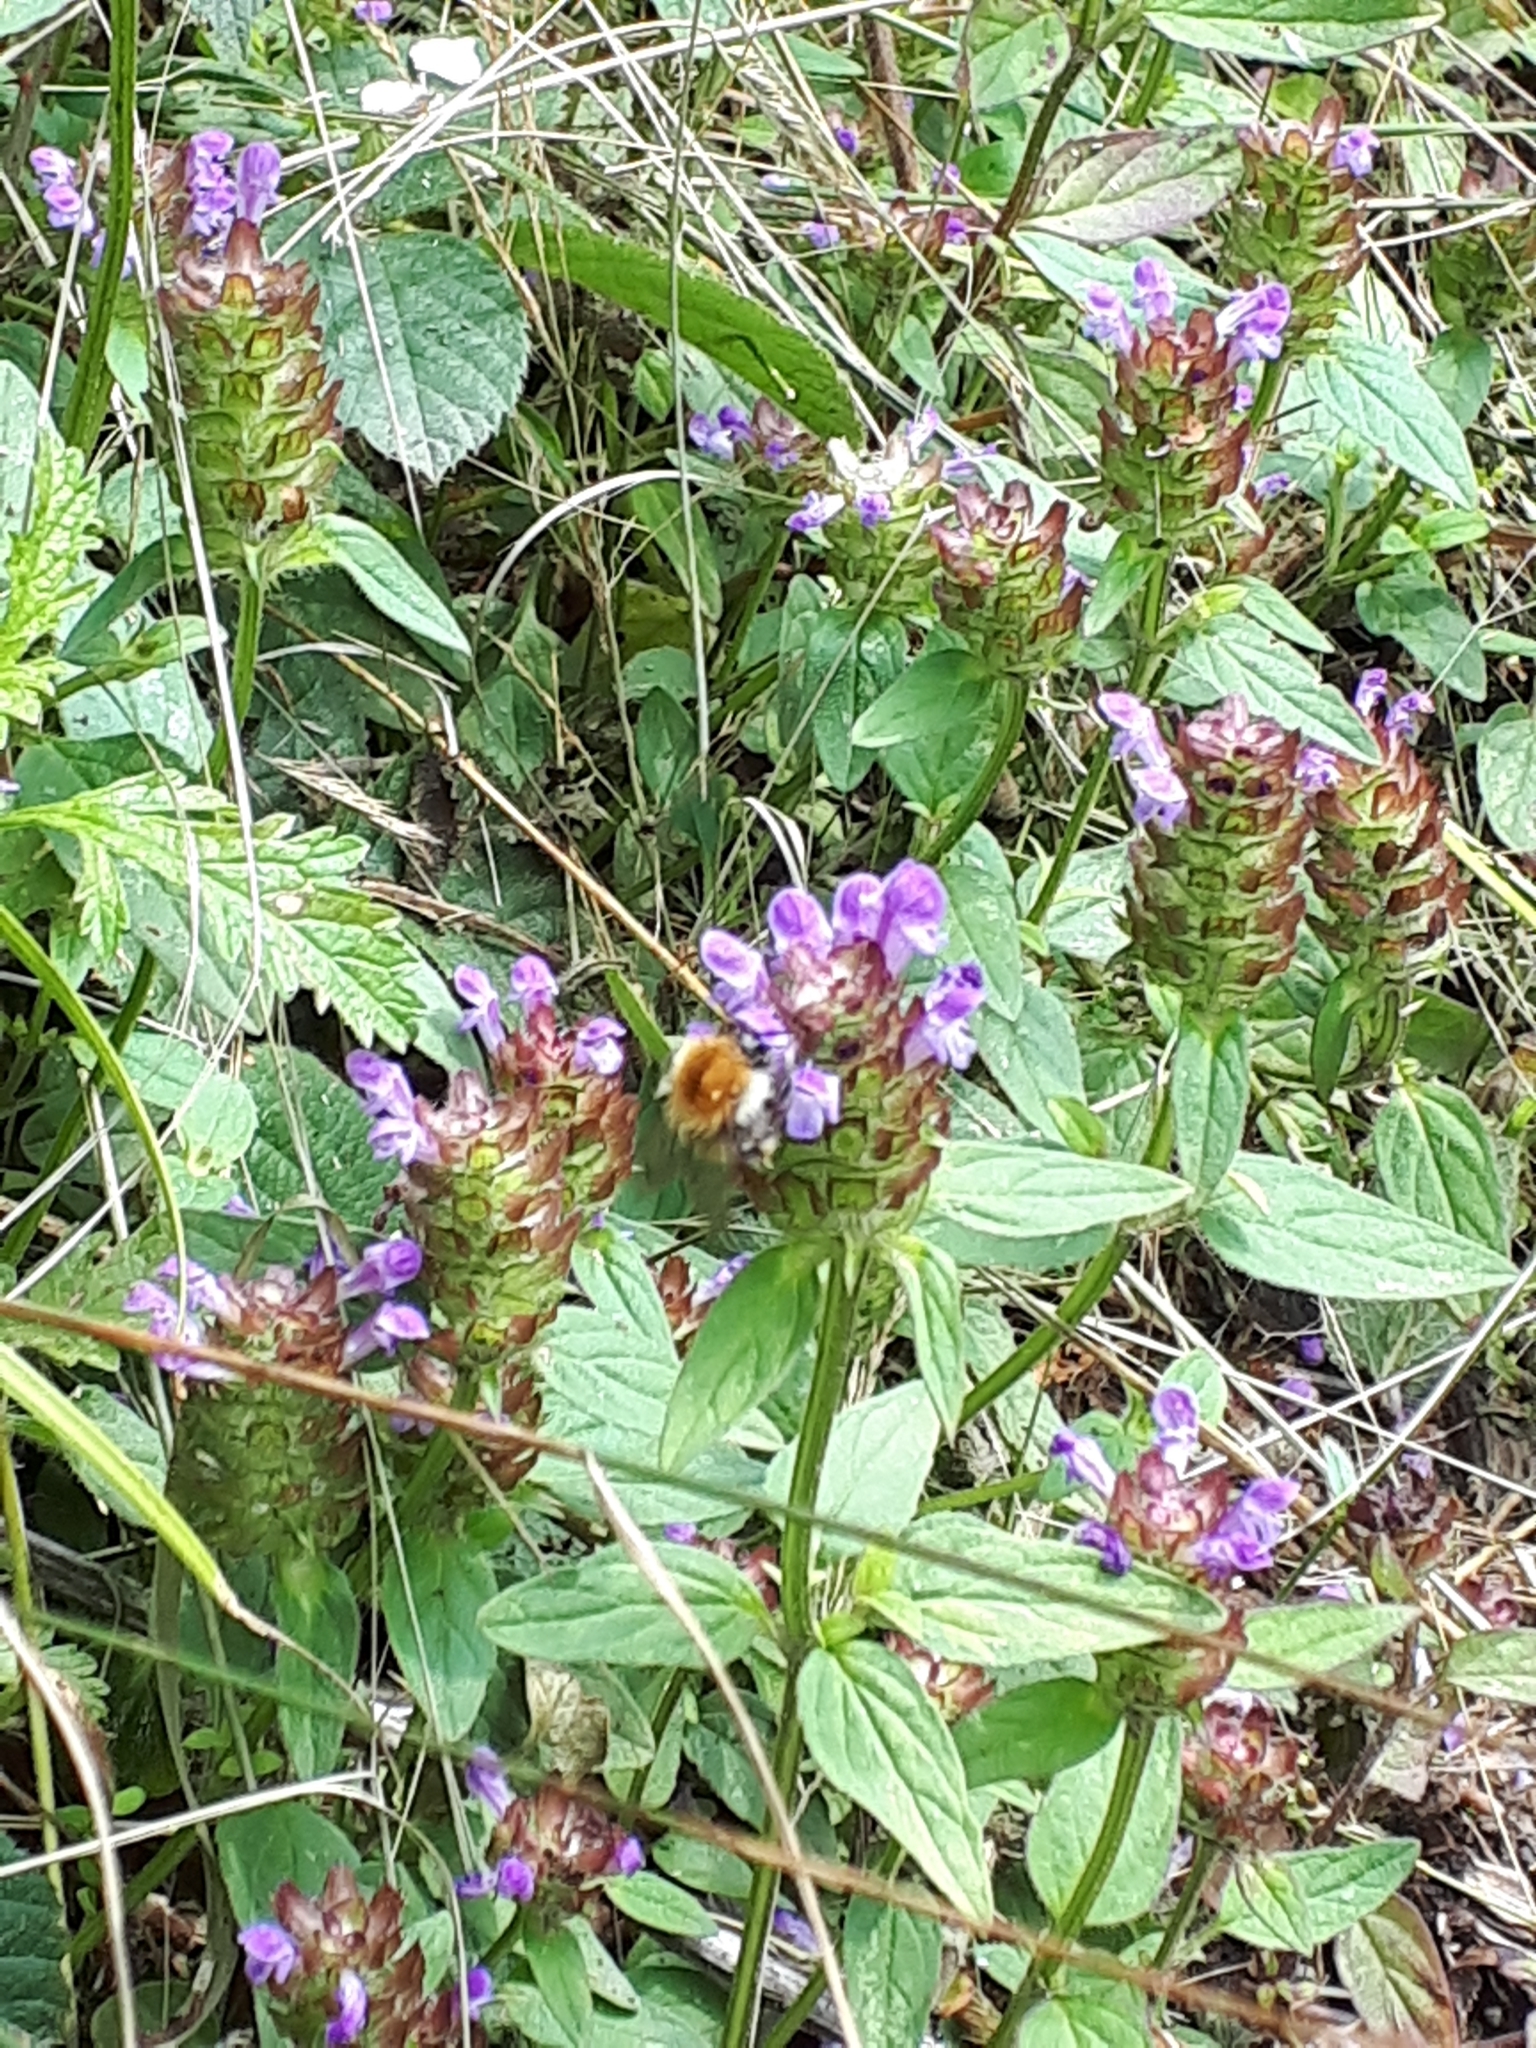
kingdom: Animalia
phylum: Arthropoda
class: Insecta
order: Hymenoptera
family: Apidae
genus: Bombus
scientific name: Bombus pascuorum
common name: Common carder bee
